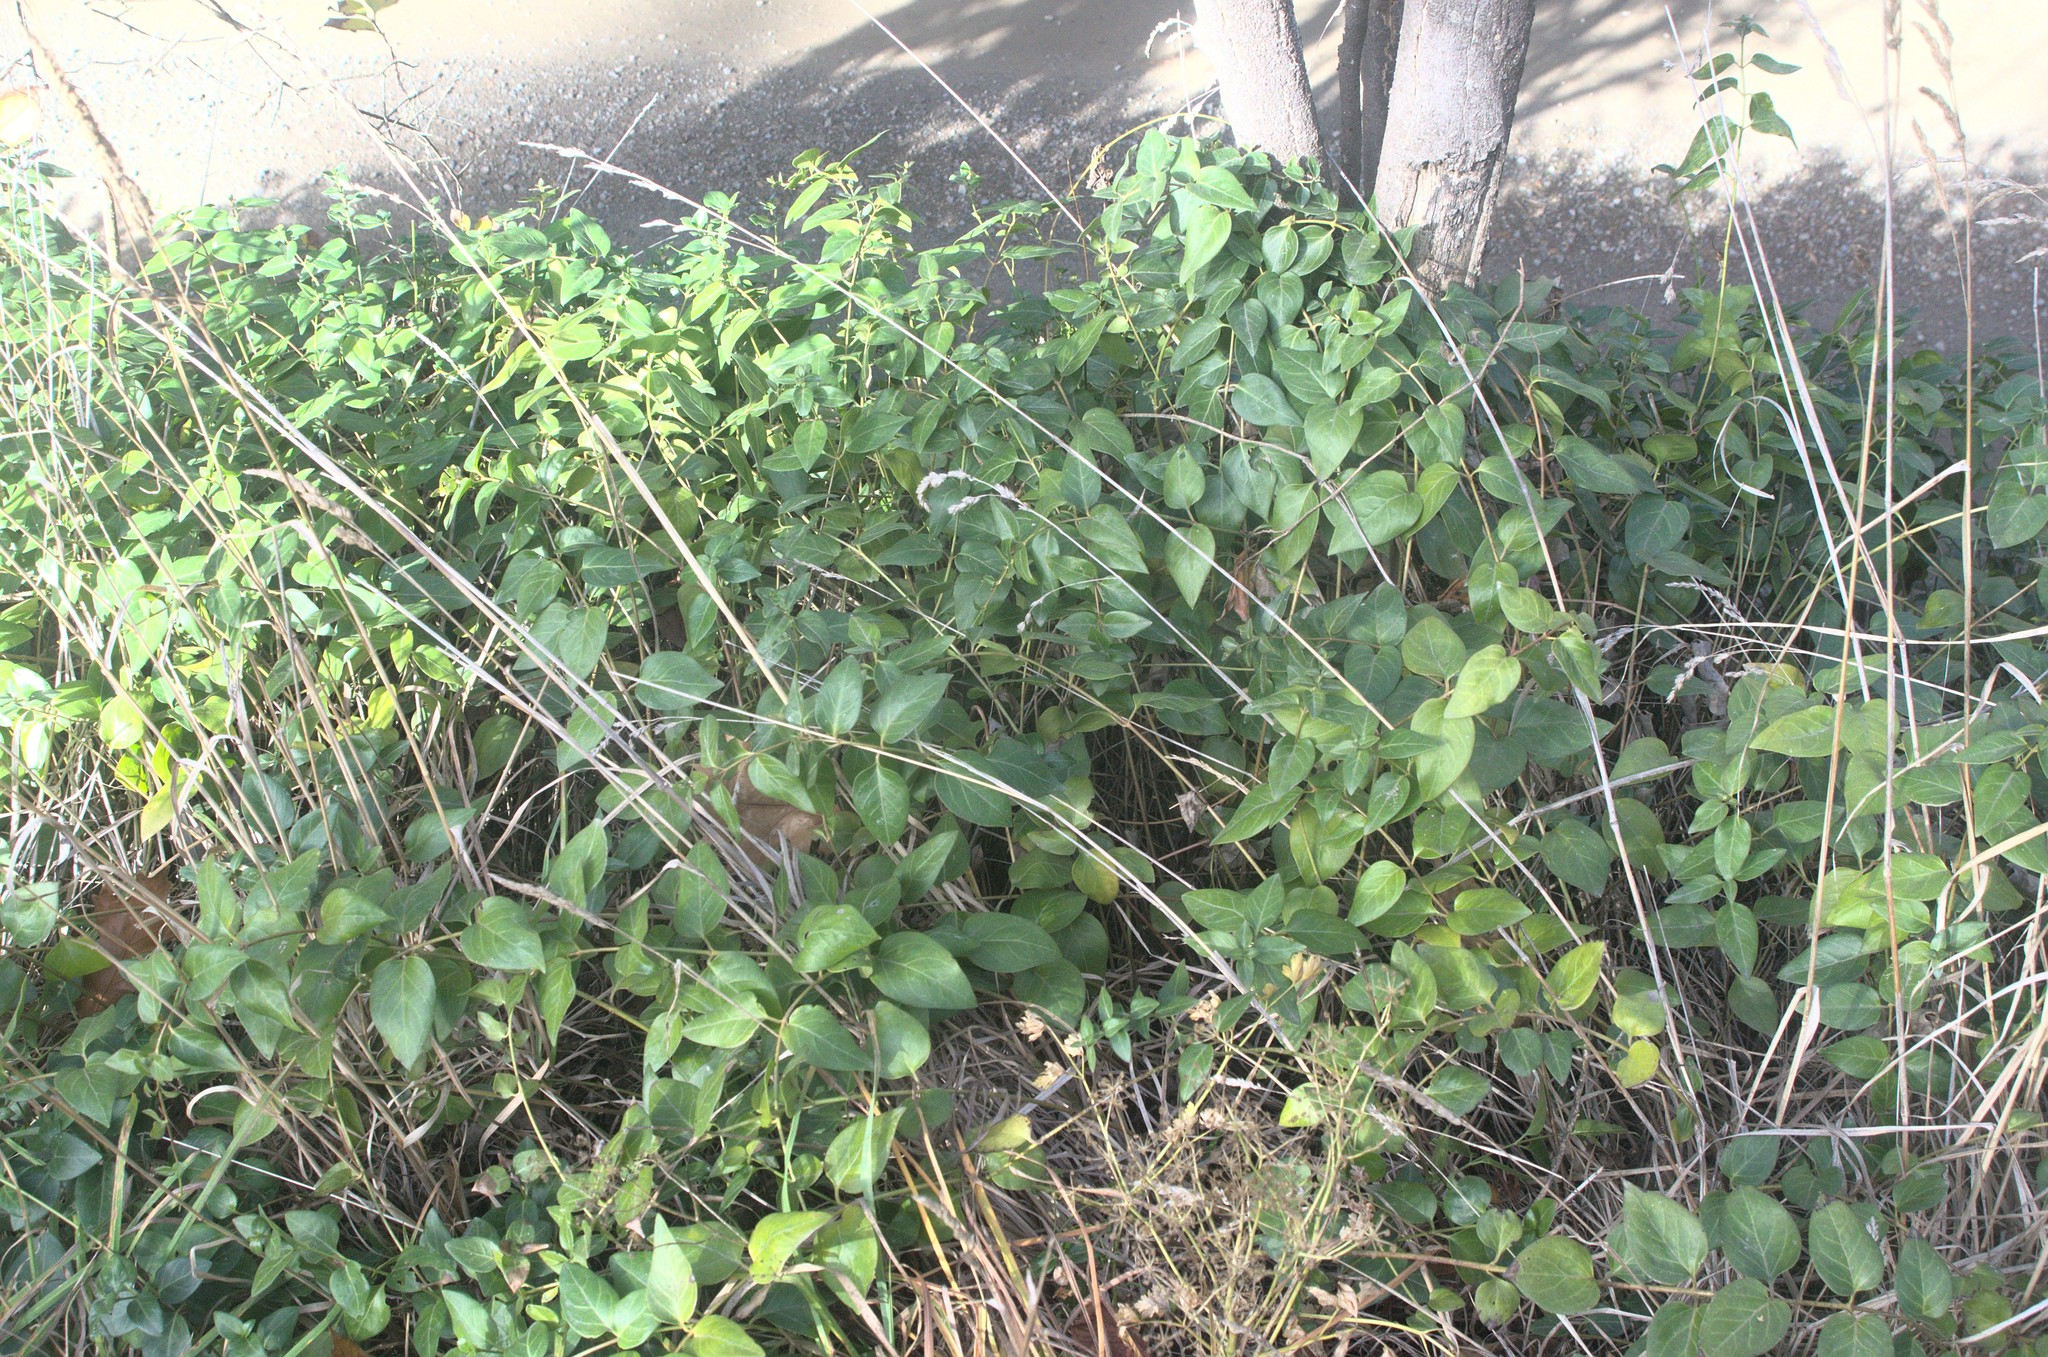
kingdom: Plantae
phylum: Tracheophyta
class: Magnoliopsida
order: Gentianales
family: Apocynaceae
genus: Vinca
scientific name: Vinca major
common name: Greater periwinkle
